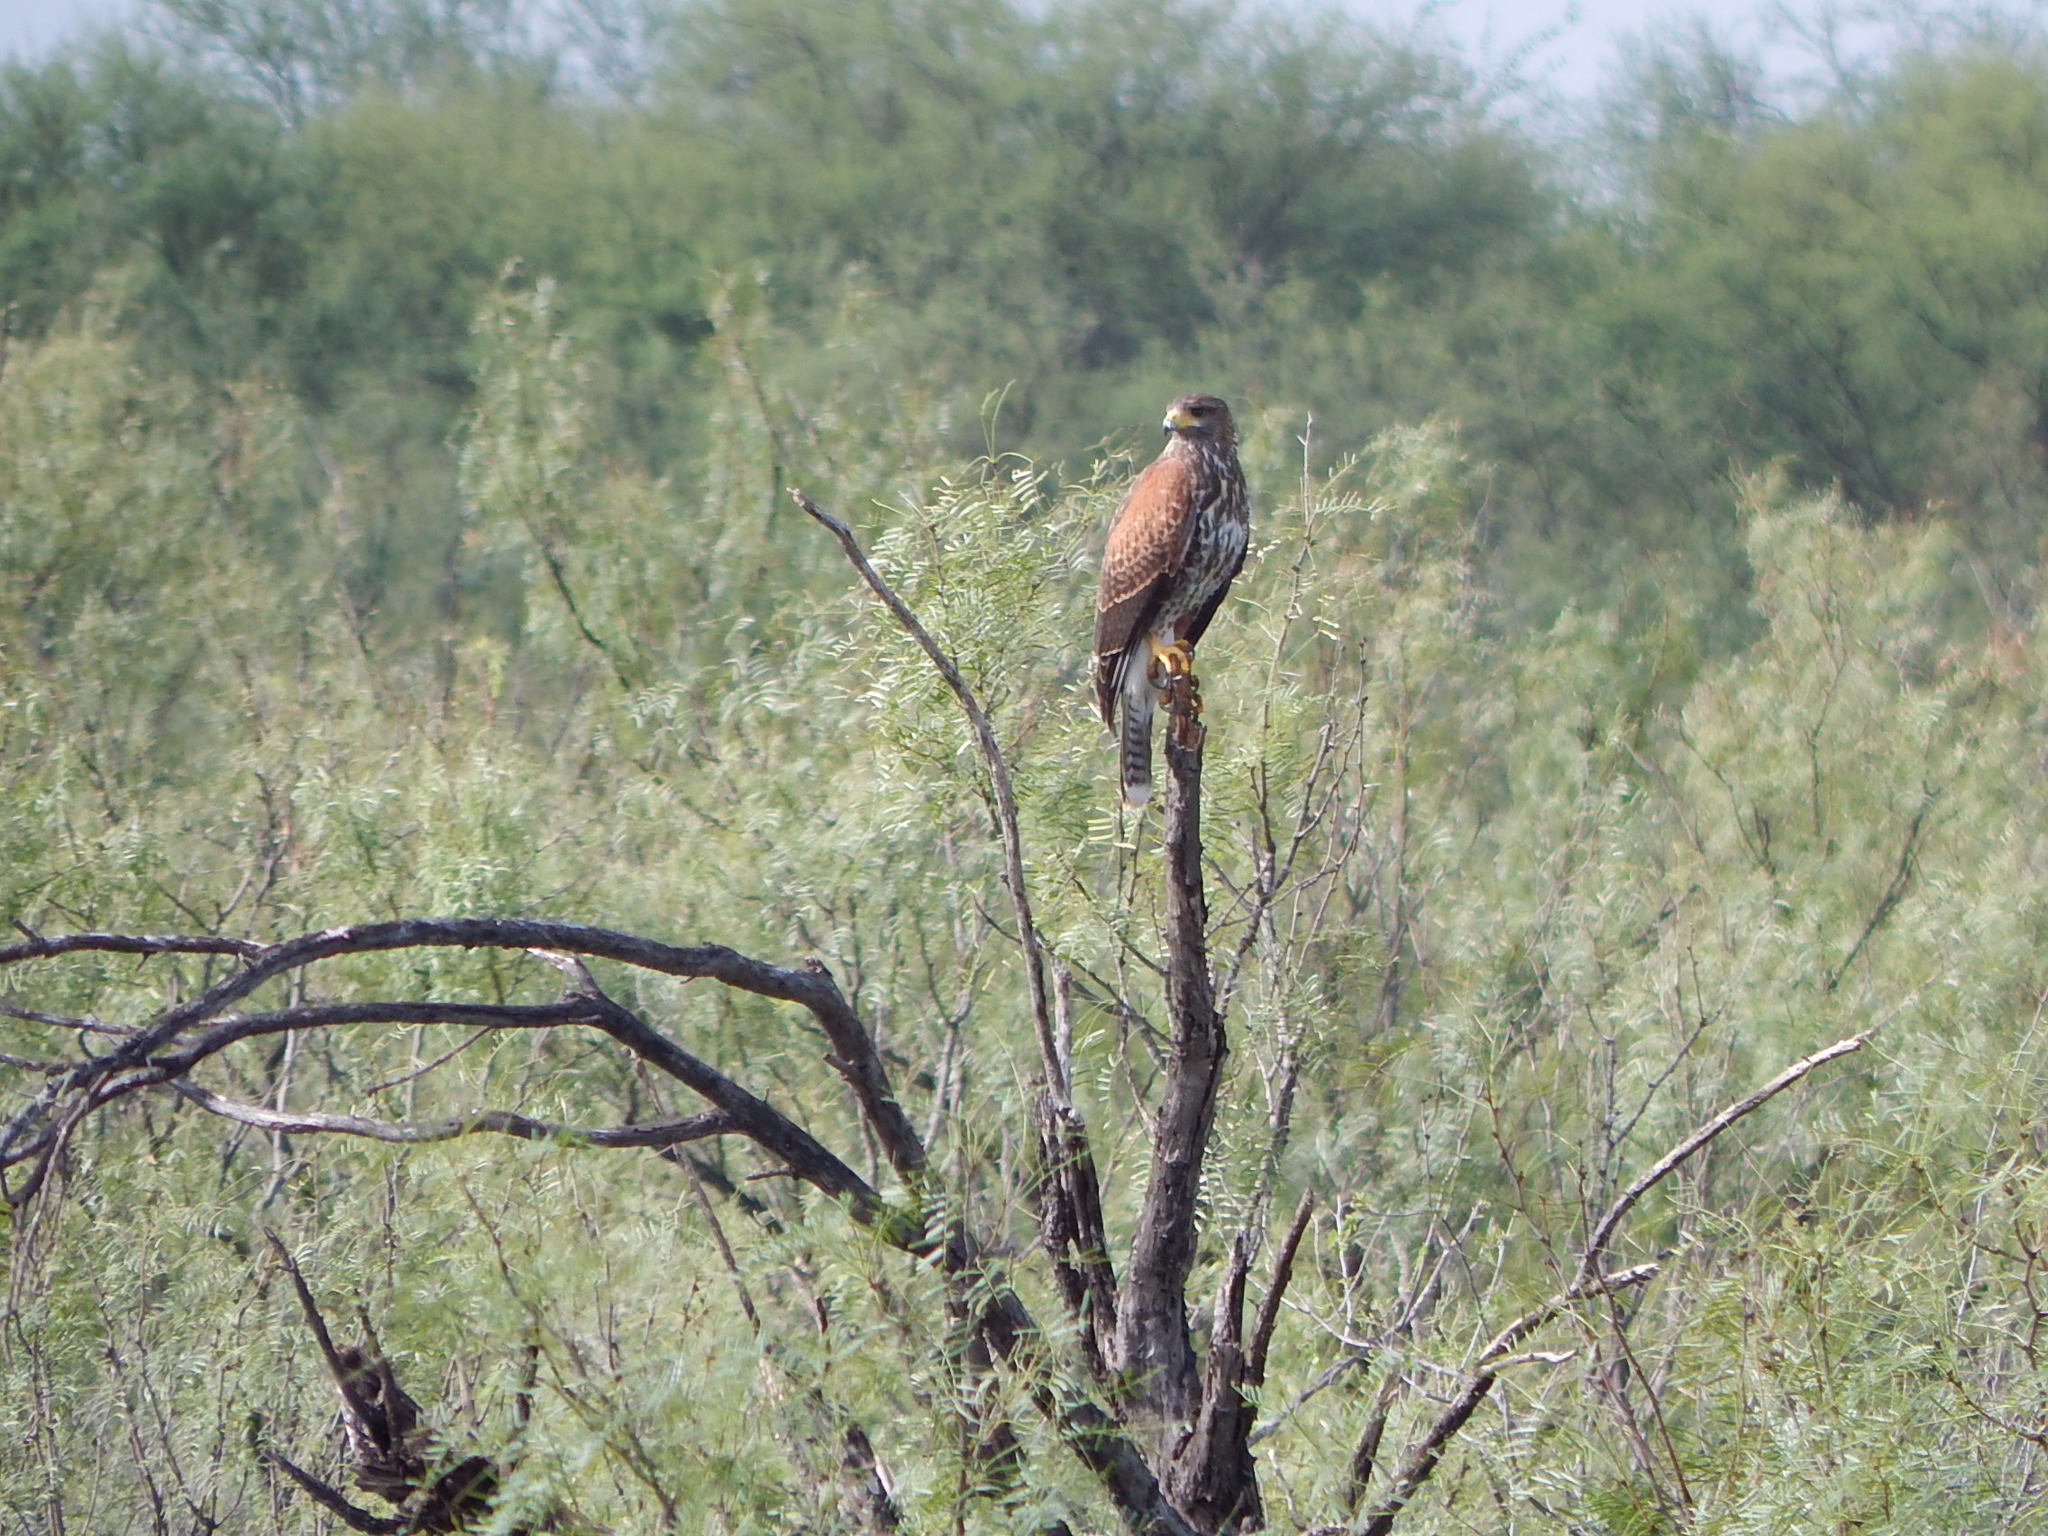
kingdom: Animalia
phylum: Chordata
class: Aves
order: Accipitriformes
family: Accipitridae
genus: Parabuteo
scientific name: Parabuteo unicinctus
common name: Harris's hawk
